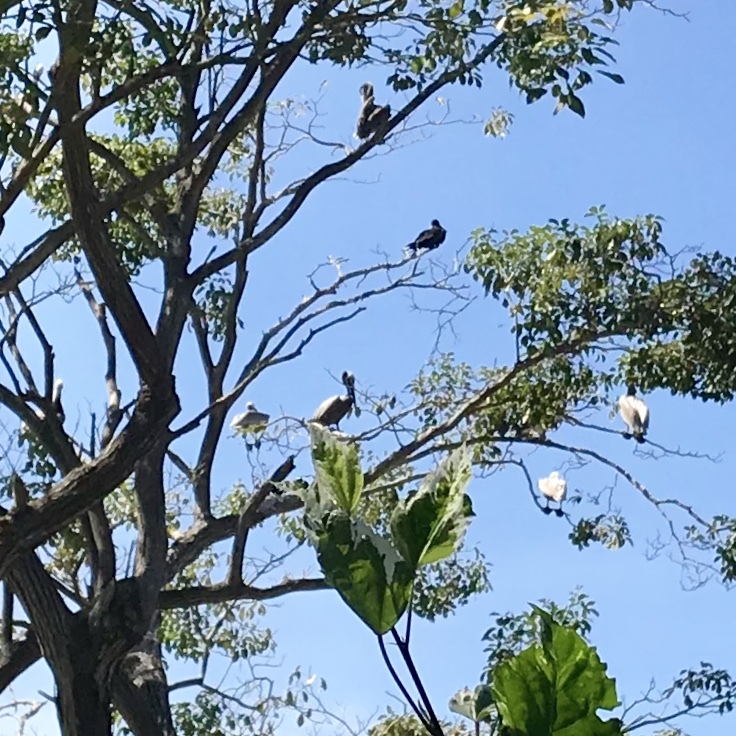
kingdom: Animalia
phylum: Chordata
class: Aves
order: Pelecaniformes
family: Pelecanidae
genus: Pelecanus
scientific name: Pelecanus occidentalis
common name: Brown pelican
